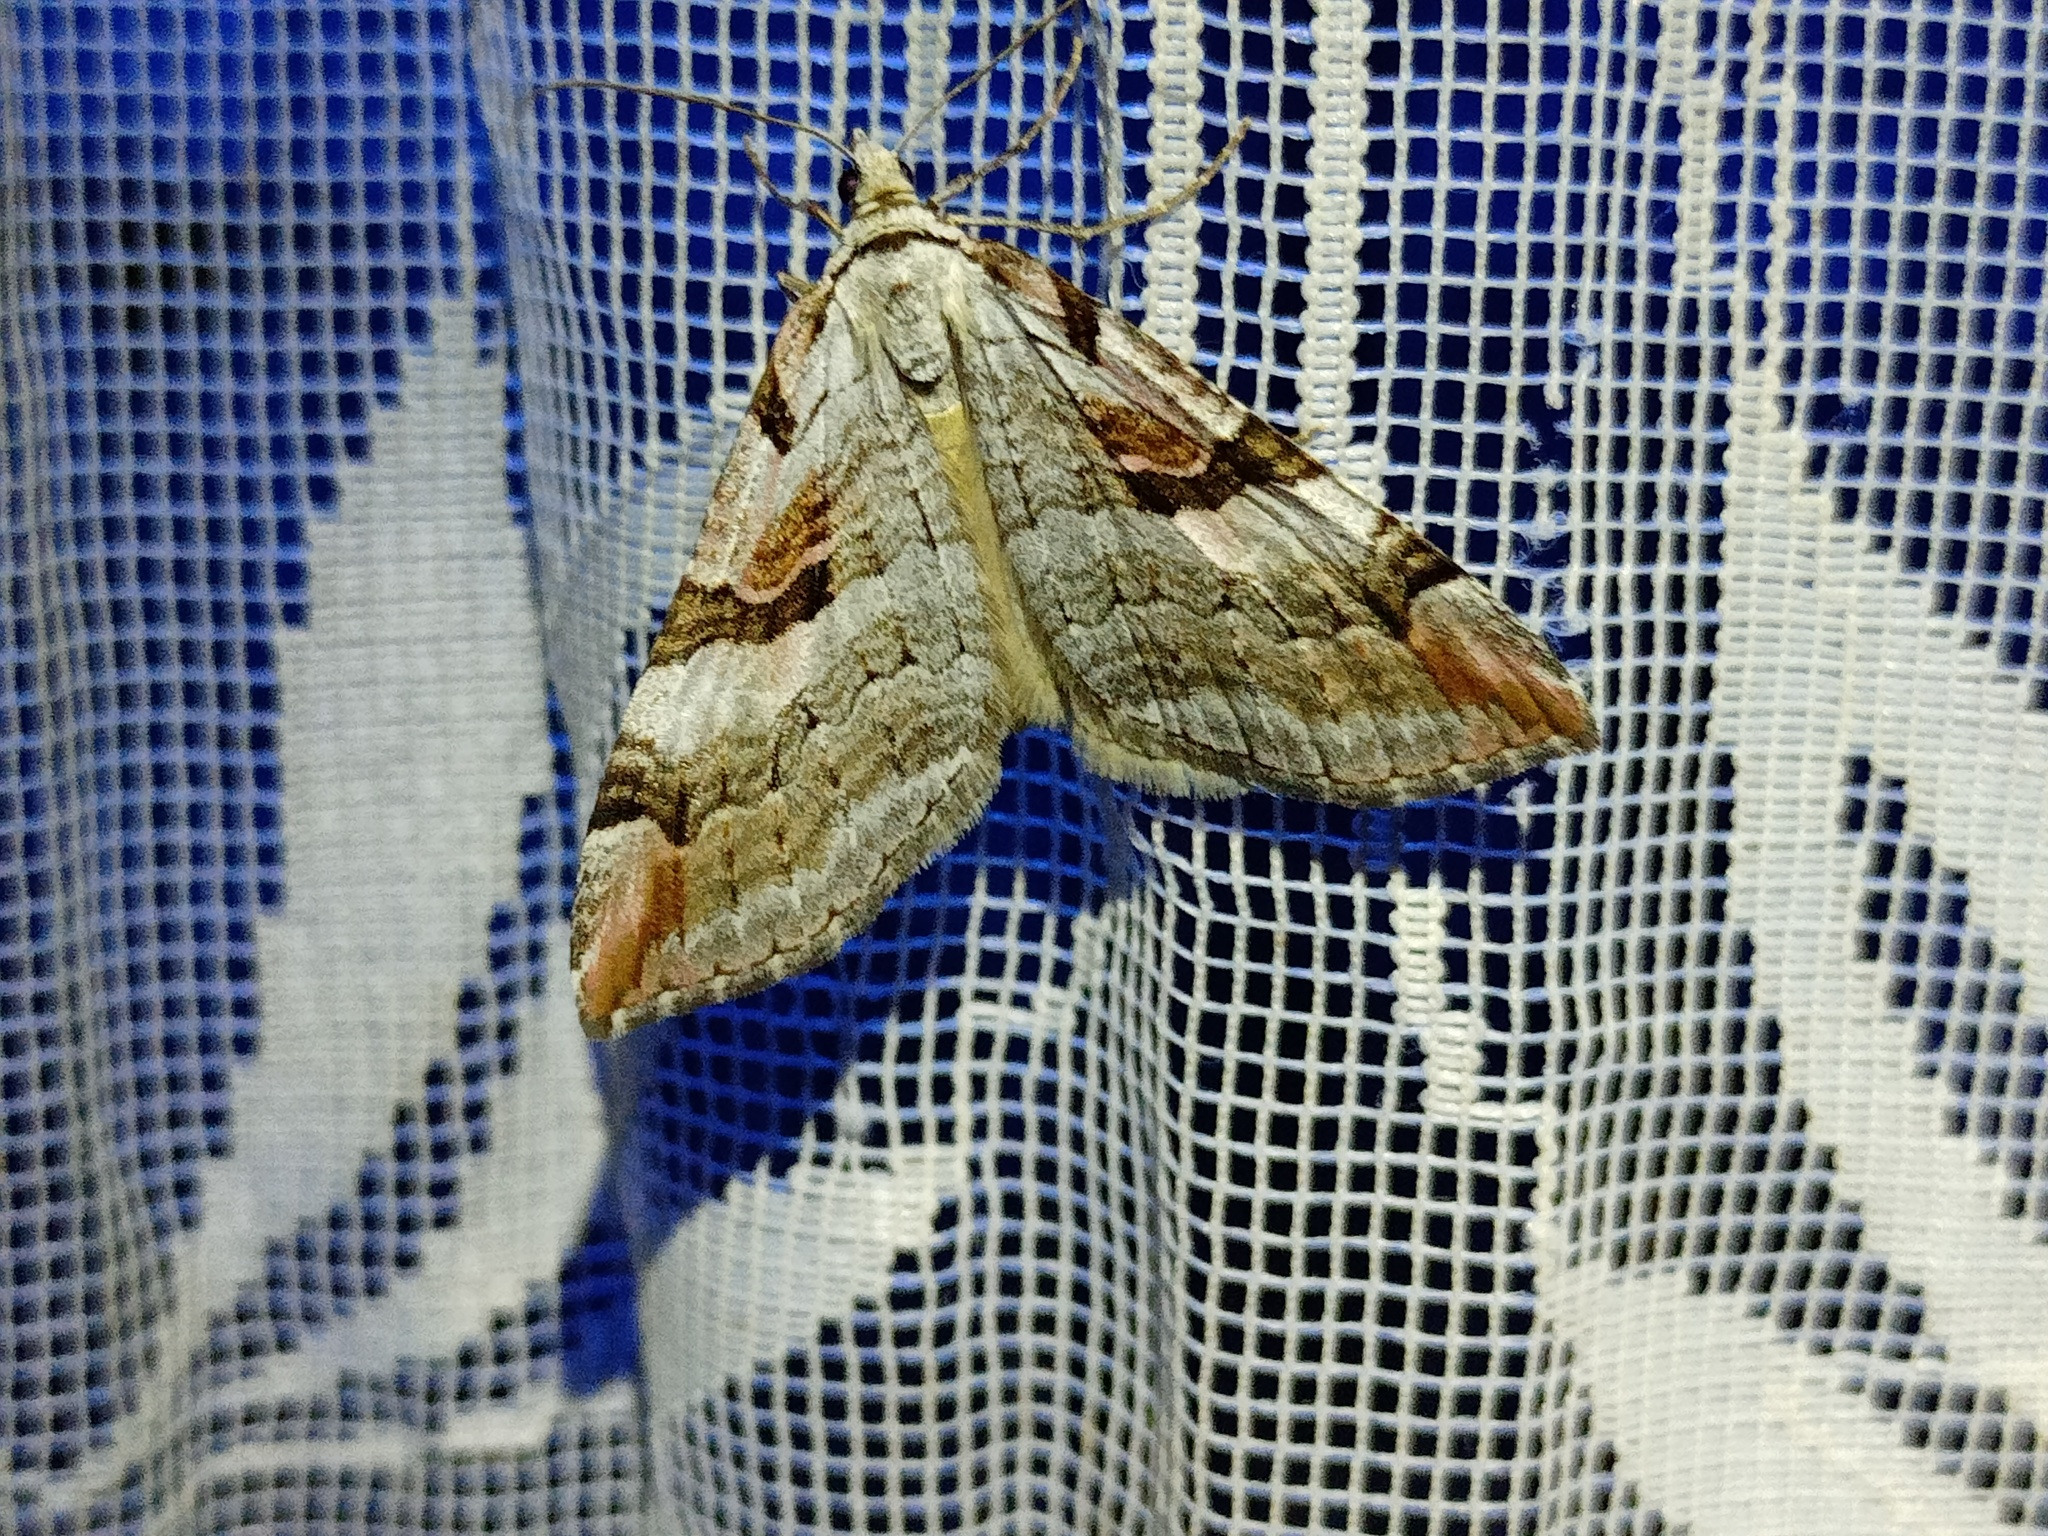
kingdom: Animalia
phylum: Arthropoda
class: Insecta
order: Lepidoptera
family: Geometridae
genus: Aplocera
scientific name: Aplocera praeformata
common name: Purple treble-bar
